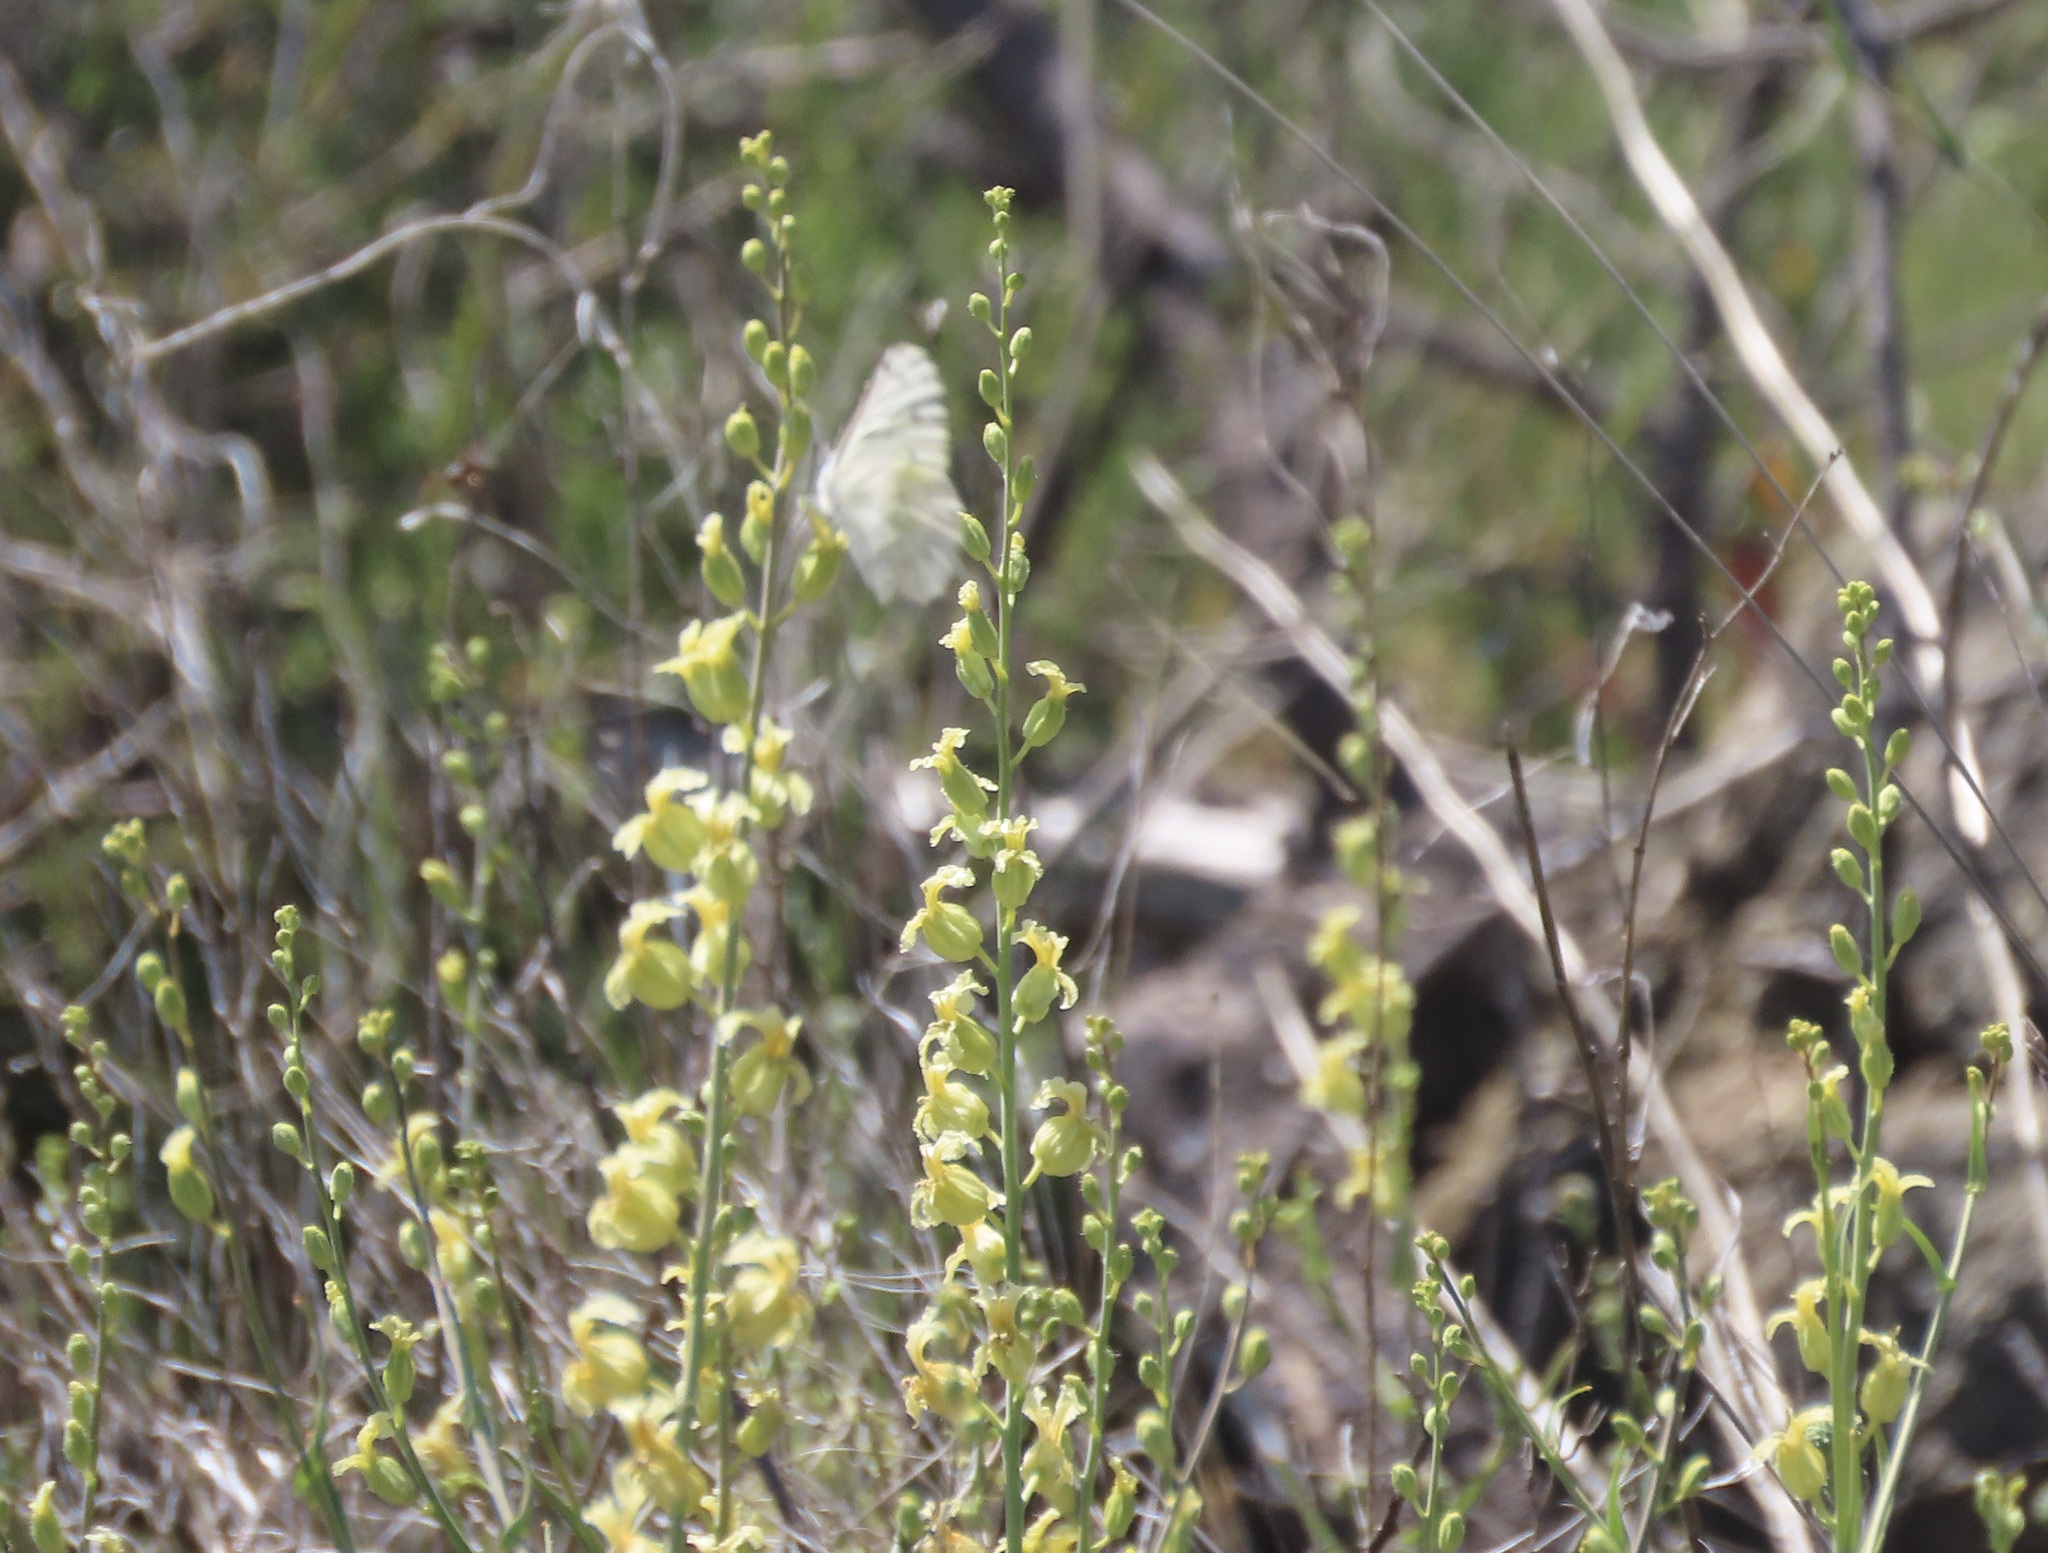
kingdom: Animalia
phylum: Arthropoda
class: Insecta
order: Lepidoptera
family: Pieridae
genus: Pontia
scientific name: Pontia sisymbrii
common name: California white
